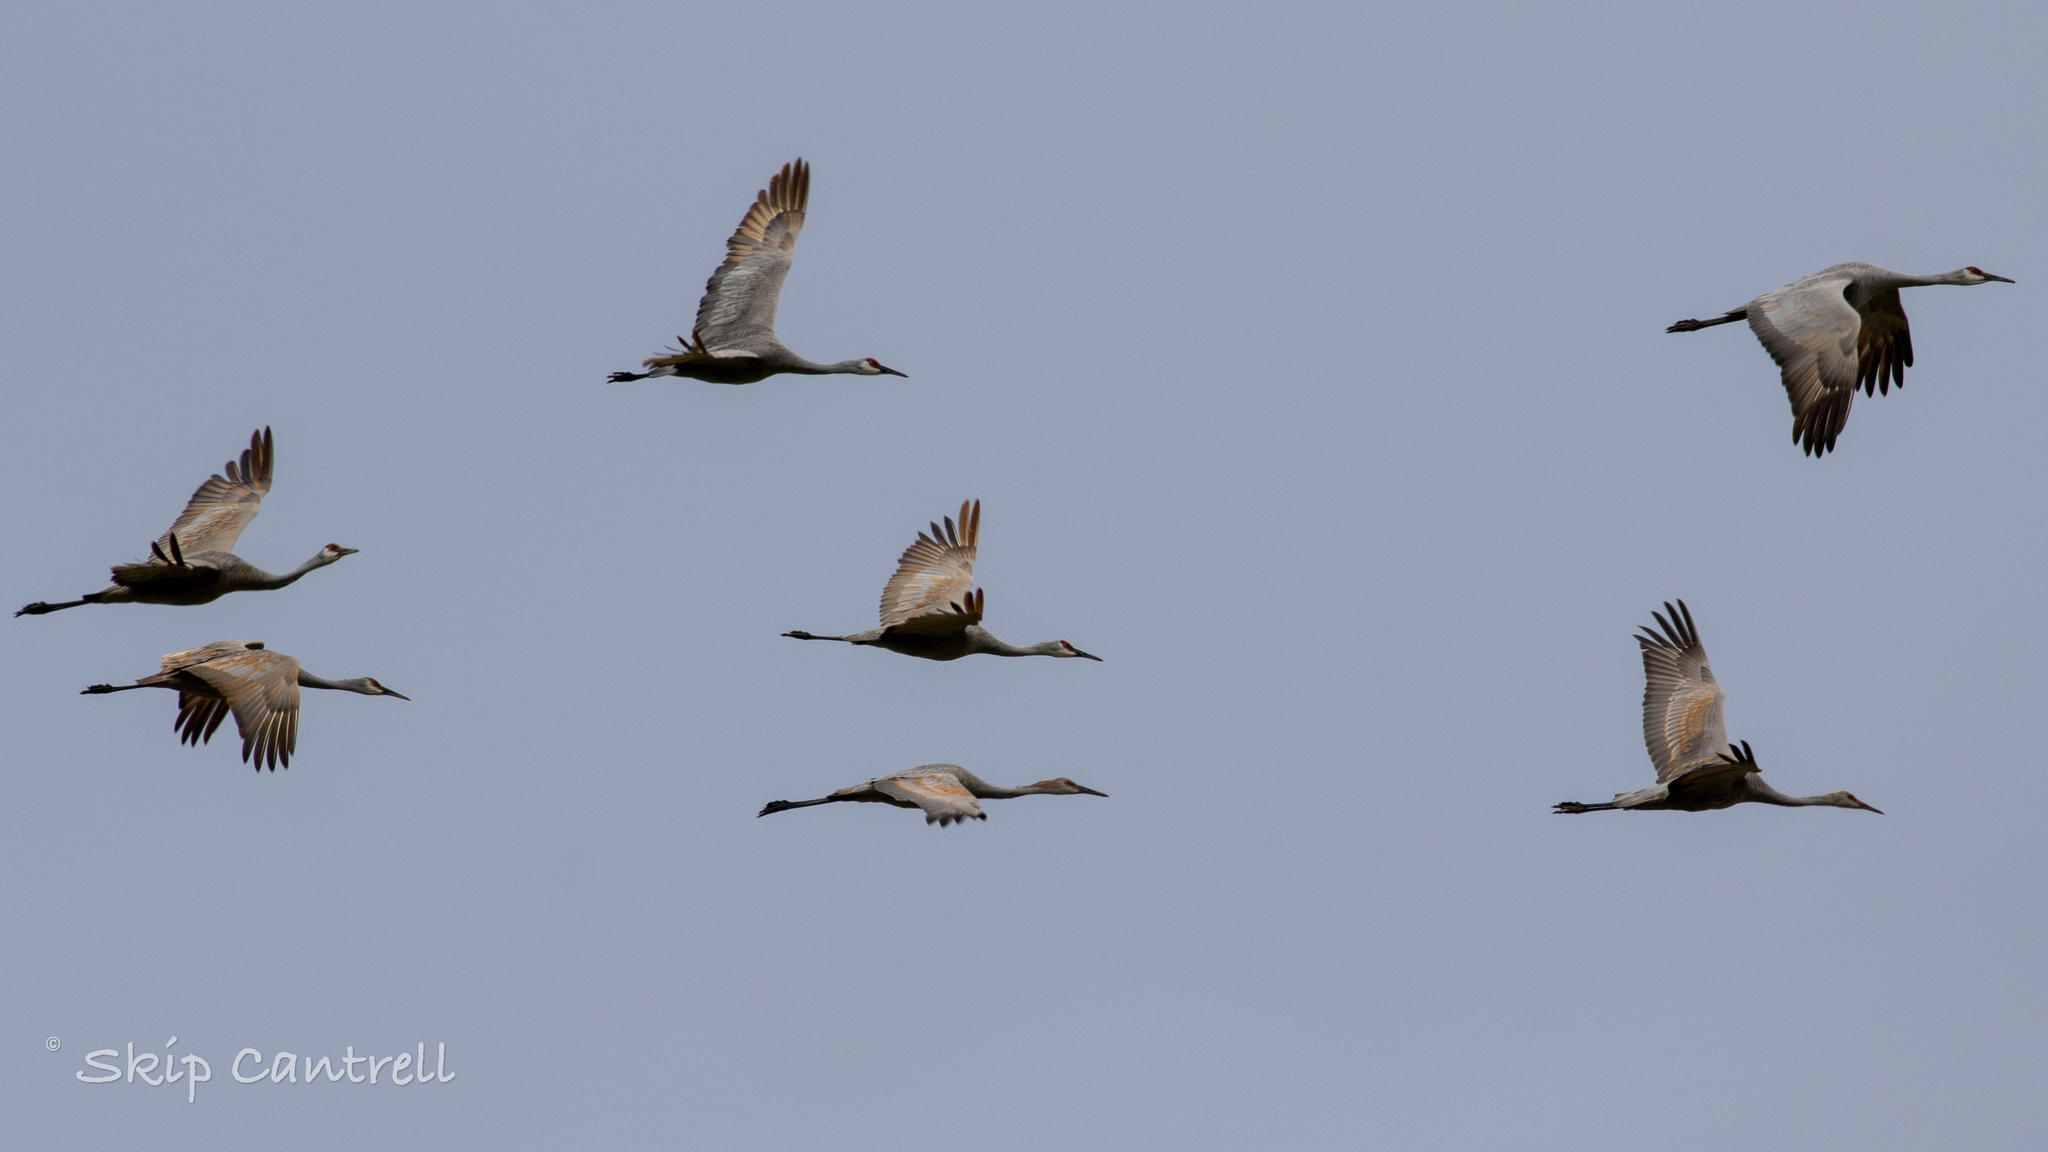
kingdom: Animalia
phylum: Chordata
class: Aves
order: Gruiformes
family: Gruidae
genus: Grus
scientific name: Grus canadensis
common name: Sandhill crane
